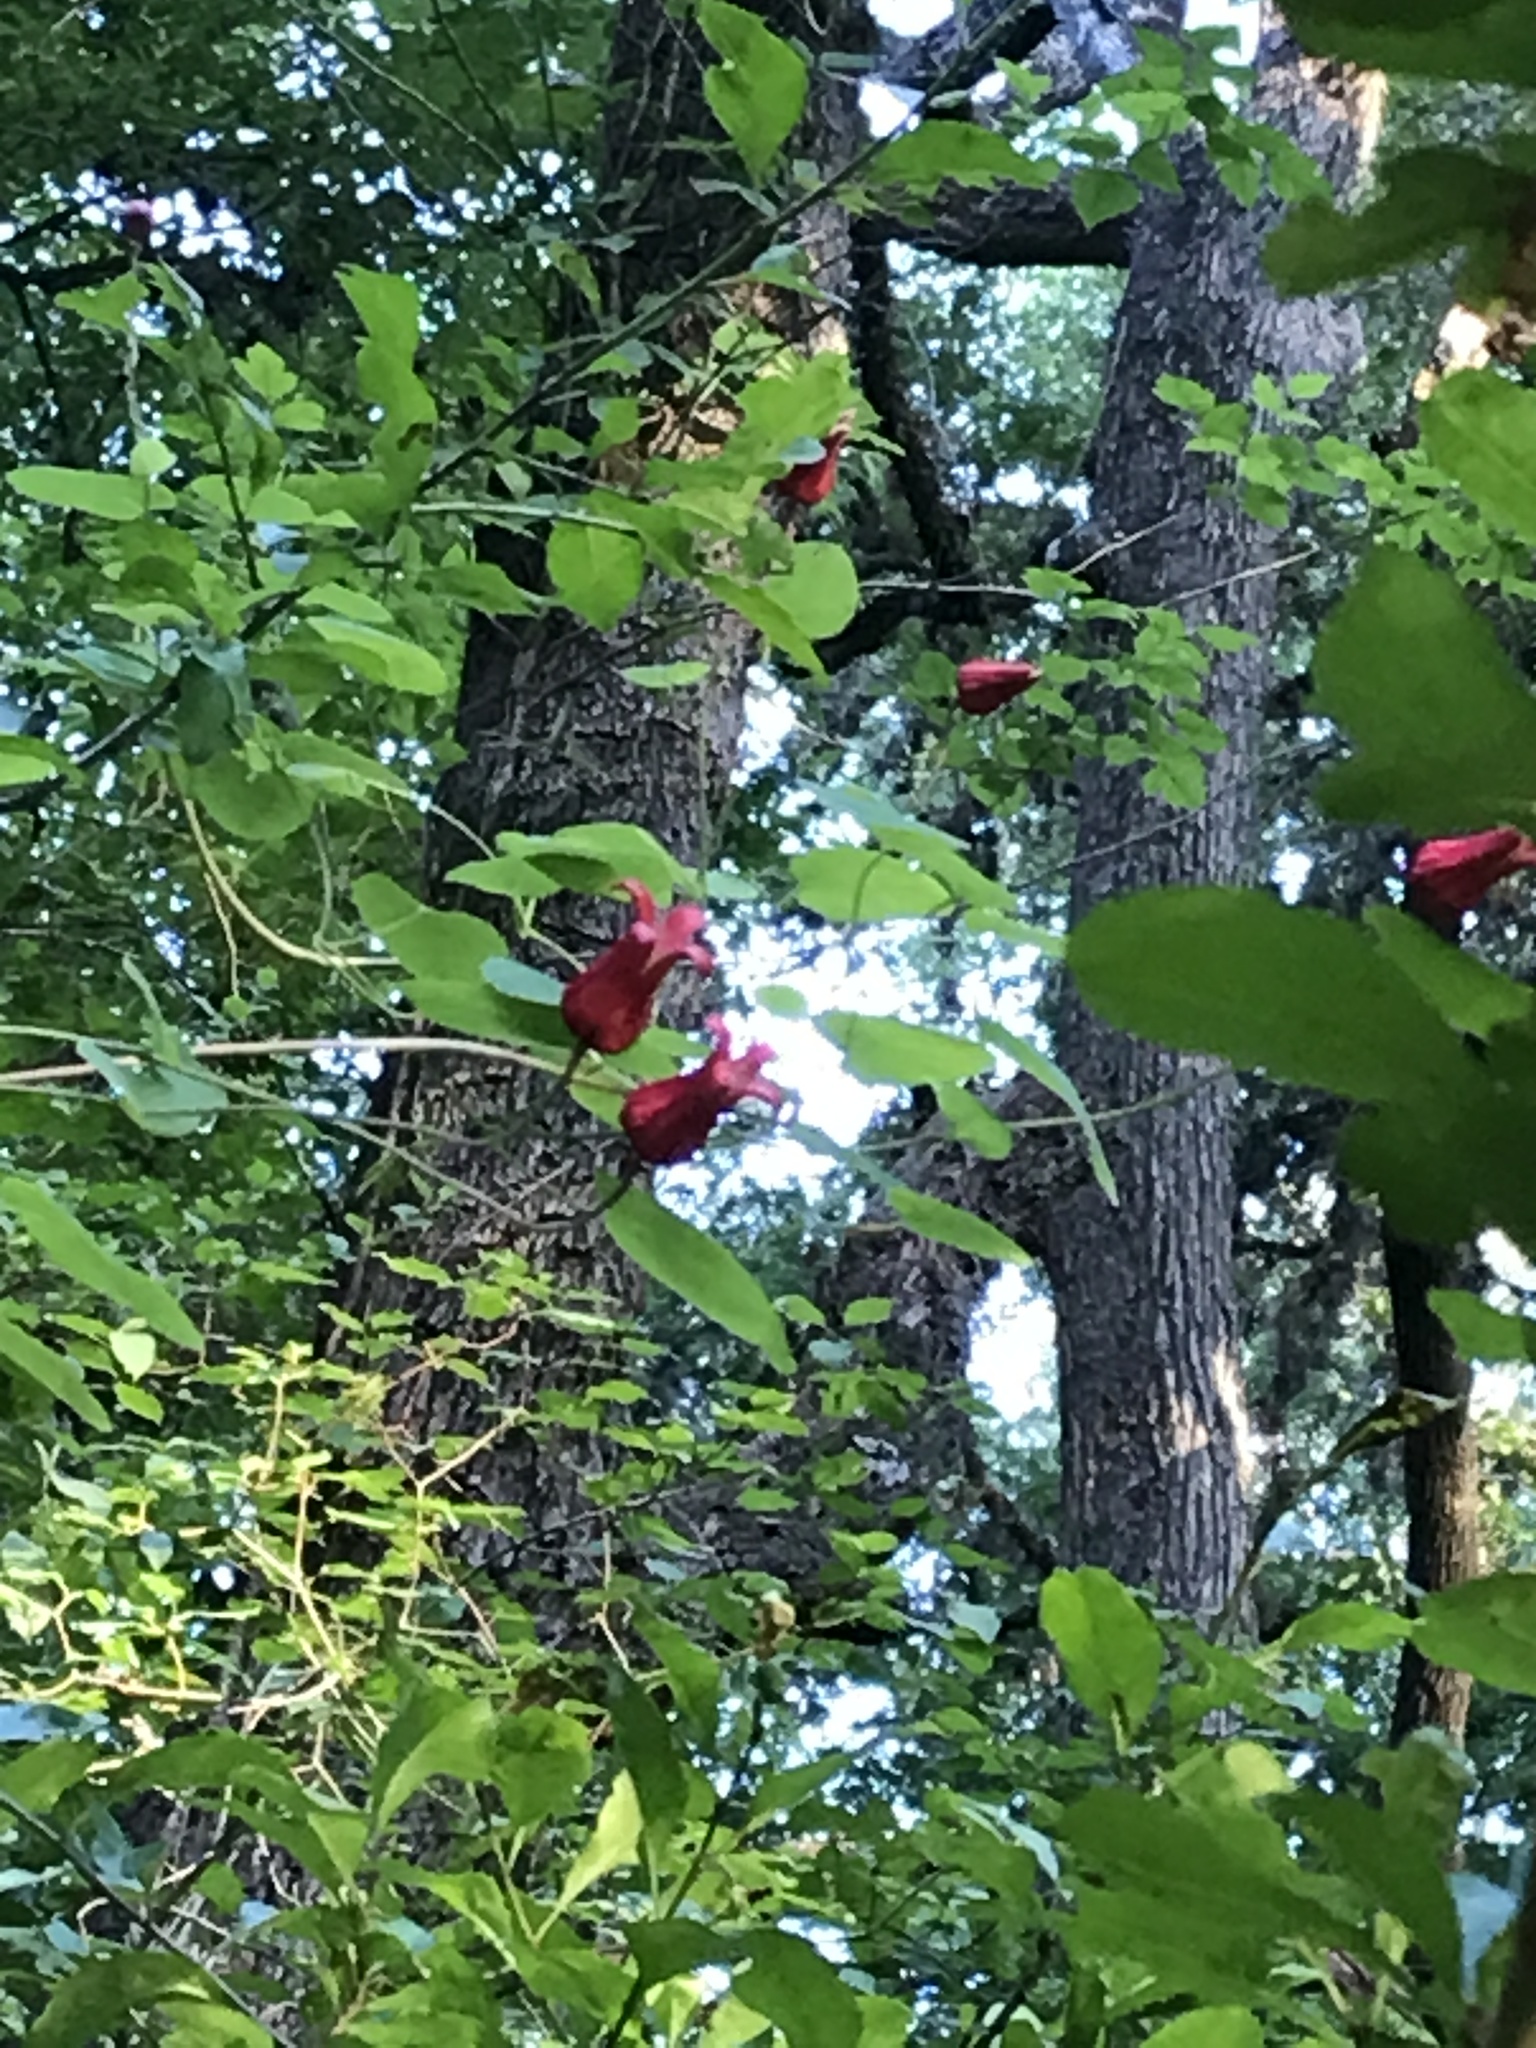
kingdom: Plantae
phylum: Tracheophyta
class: Magnoliopsida
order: Ranunculales
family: Ranunculaceae
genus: Clematis
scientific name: Clematis texensis
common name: Crimson clematis
